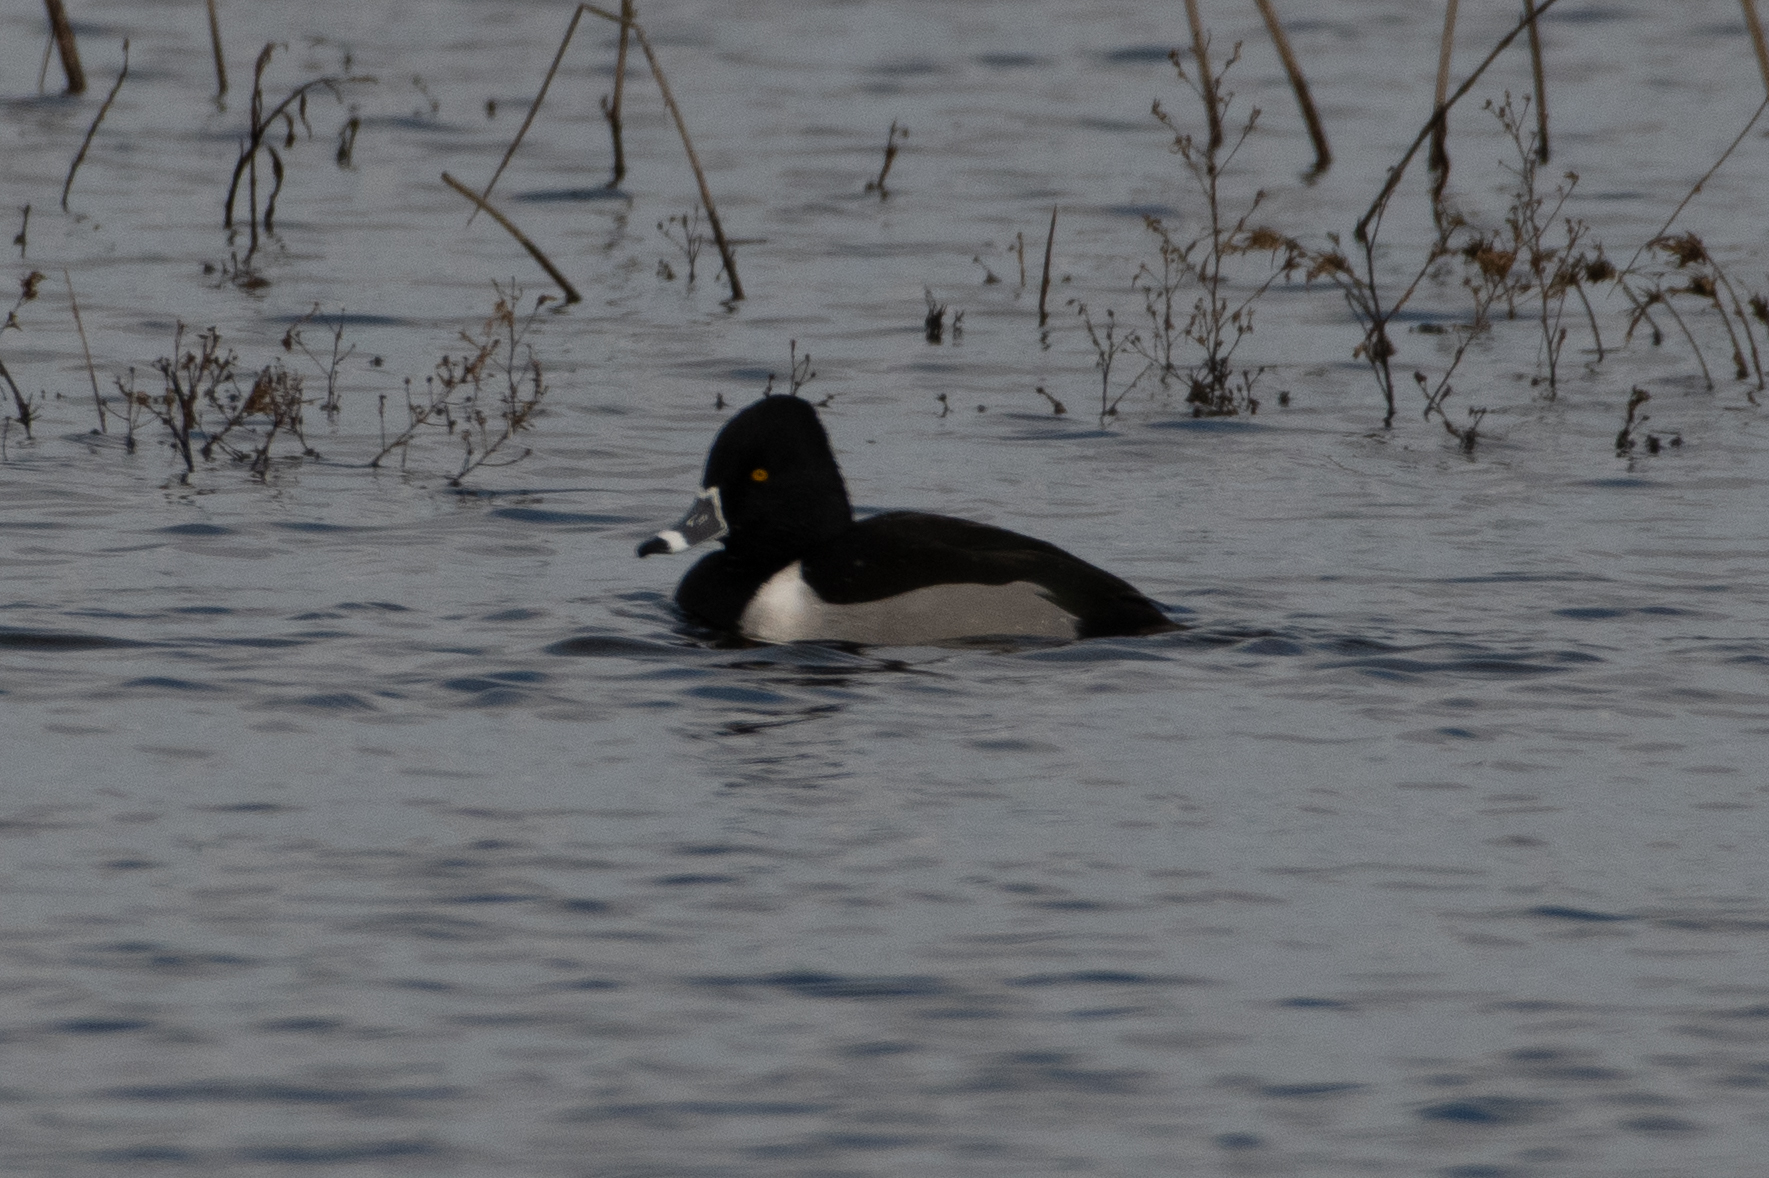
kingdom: Animalia
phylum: Chordata
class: Aves
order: Anseriformes
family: Anatidae
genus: Aythya
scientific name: Aythya collaris
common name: Ring-necked duck
